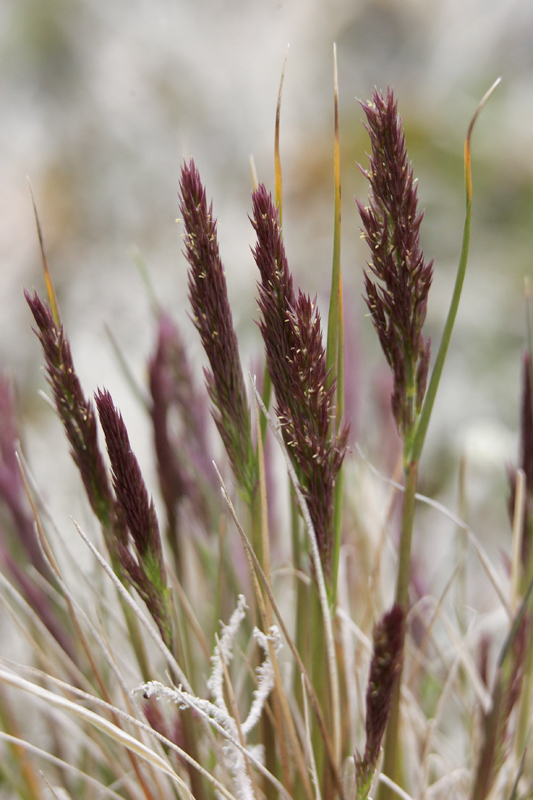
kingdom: Plantae
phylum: Tracheophyta
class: Liliopsida
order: Poales
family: Poaceae
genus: Polypogon
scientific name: Polypogon magellanicus
